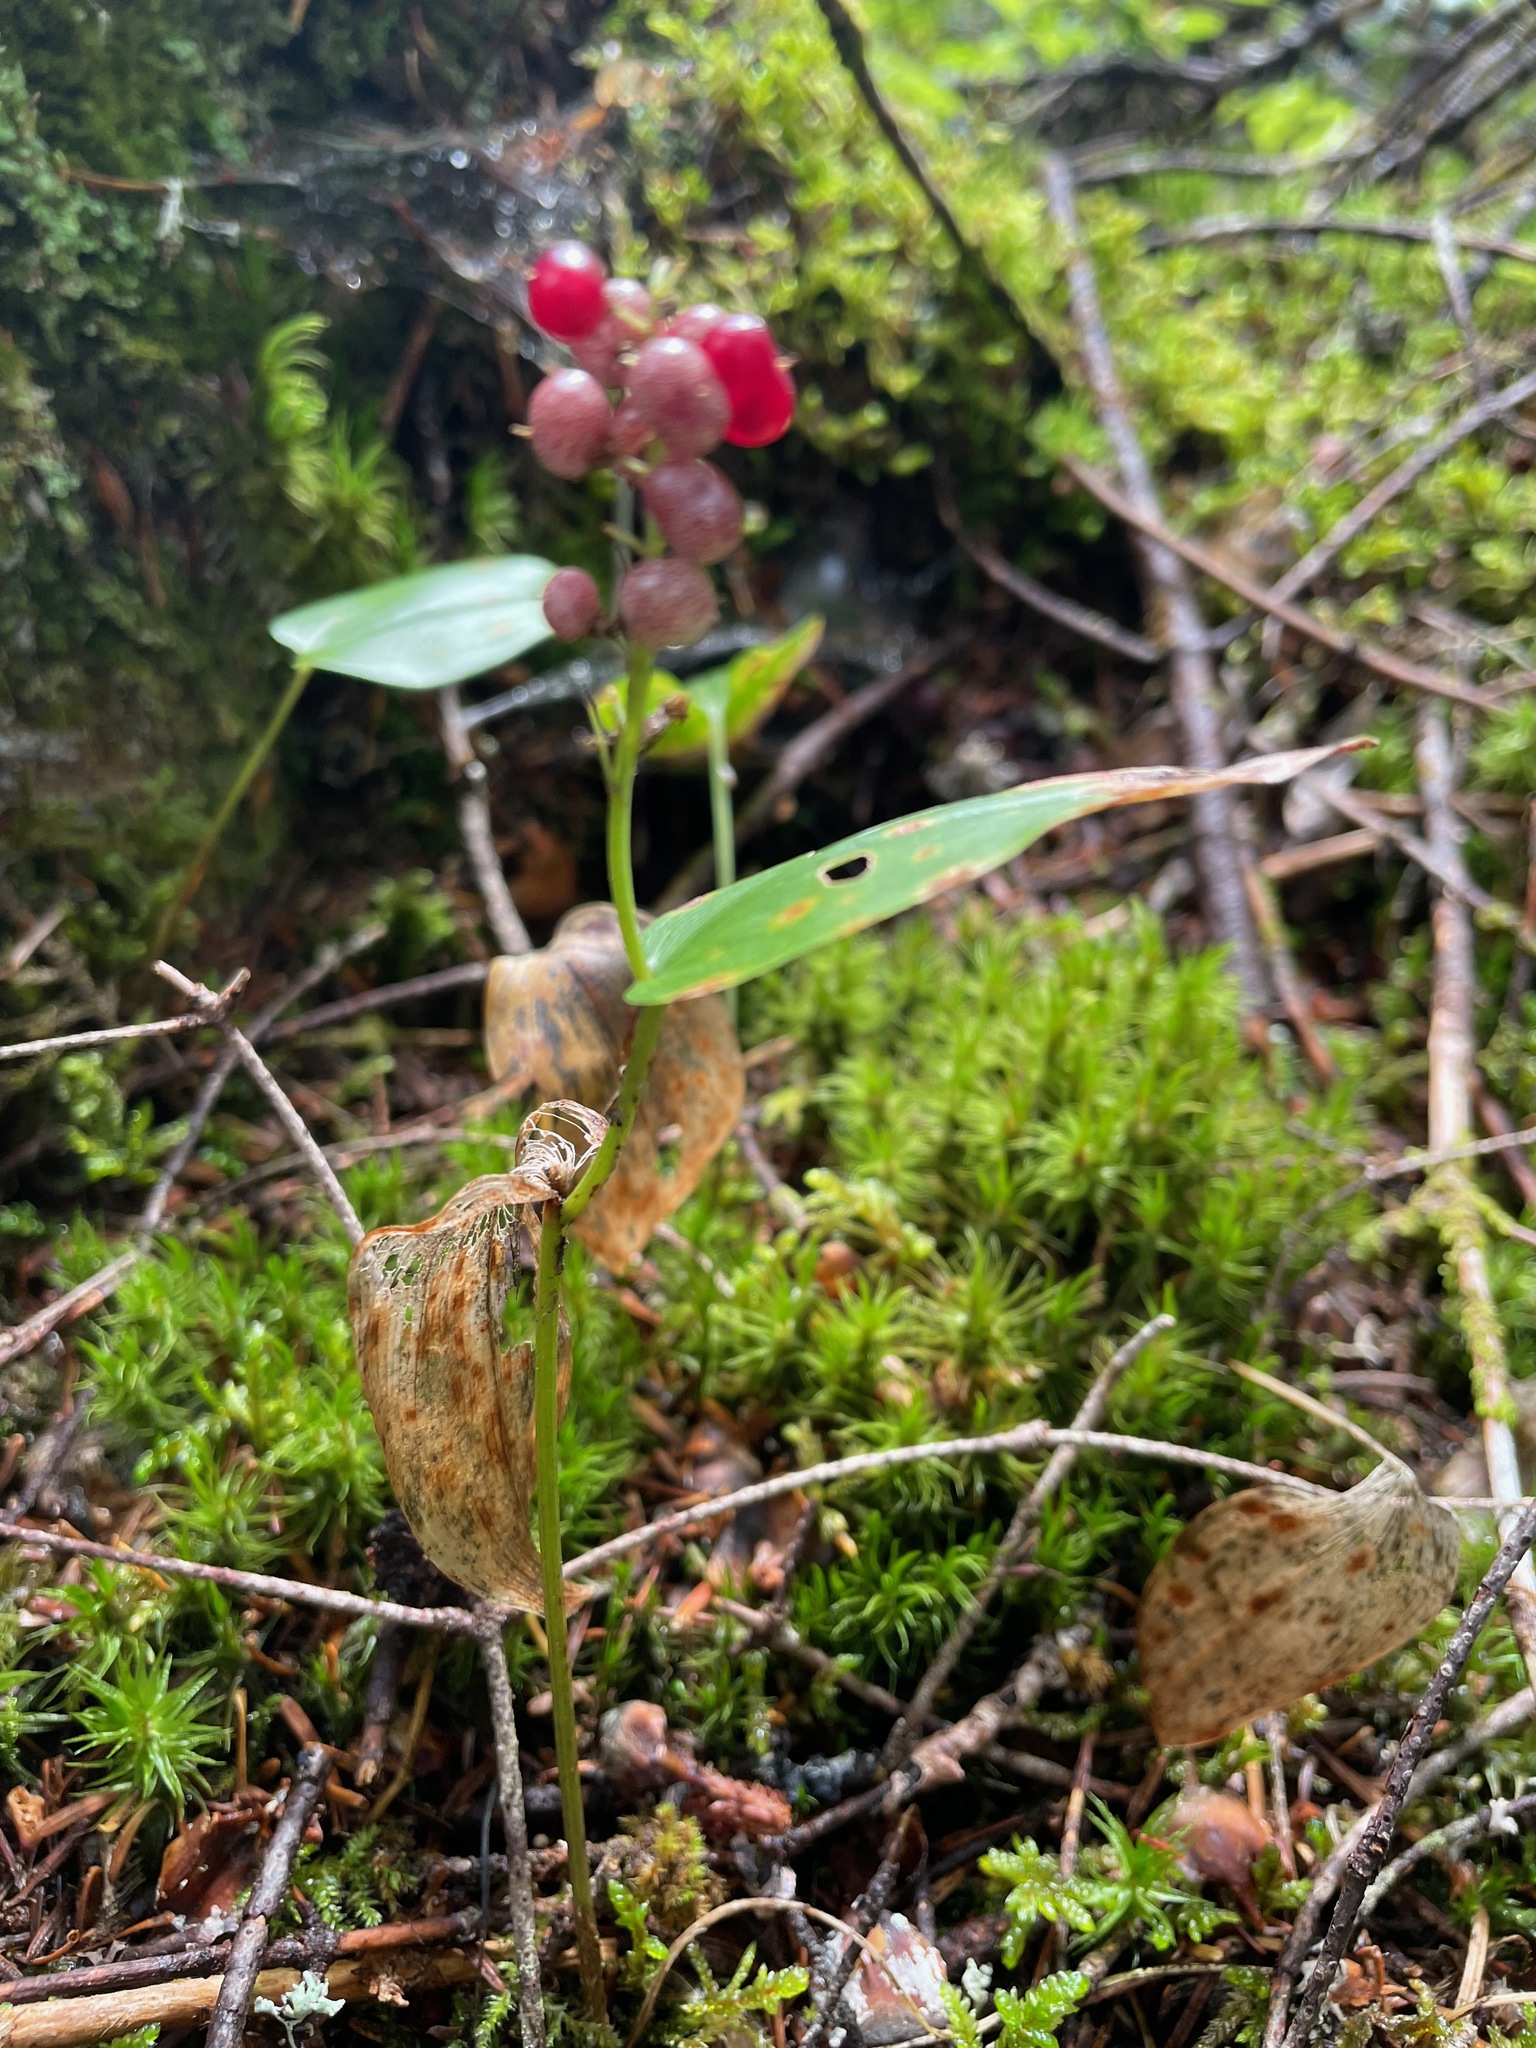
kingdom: Plantae
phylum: Tracheophyta
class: Liliopsida
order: Asparagales
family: Asparagaceae
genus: Maianthemum
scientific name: Maianthemum canadense
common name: False lily-of-the-valley
